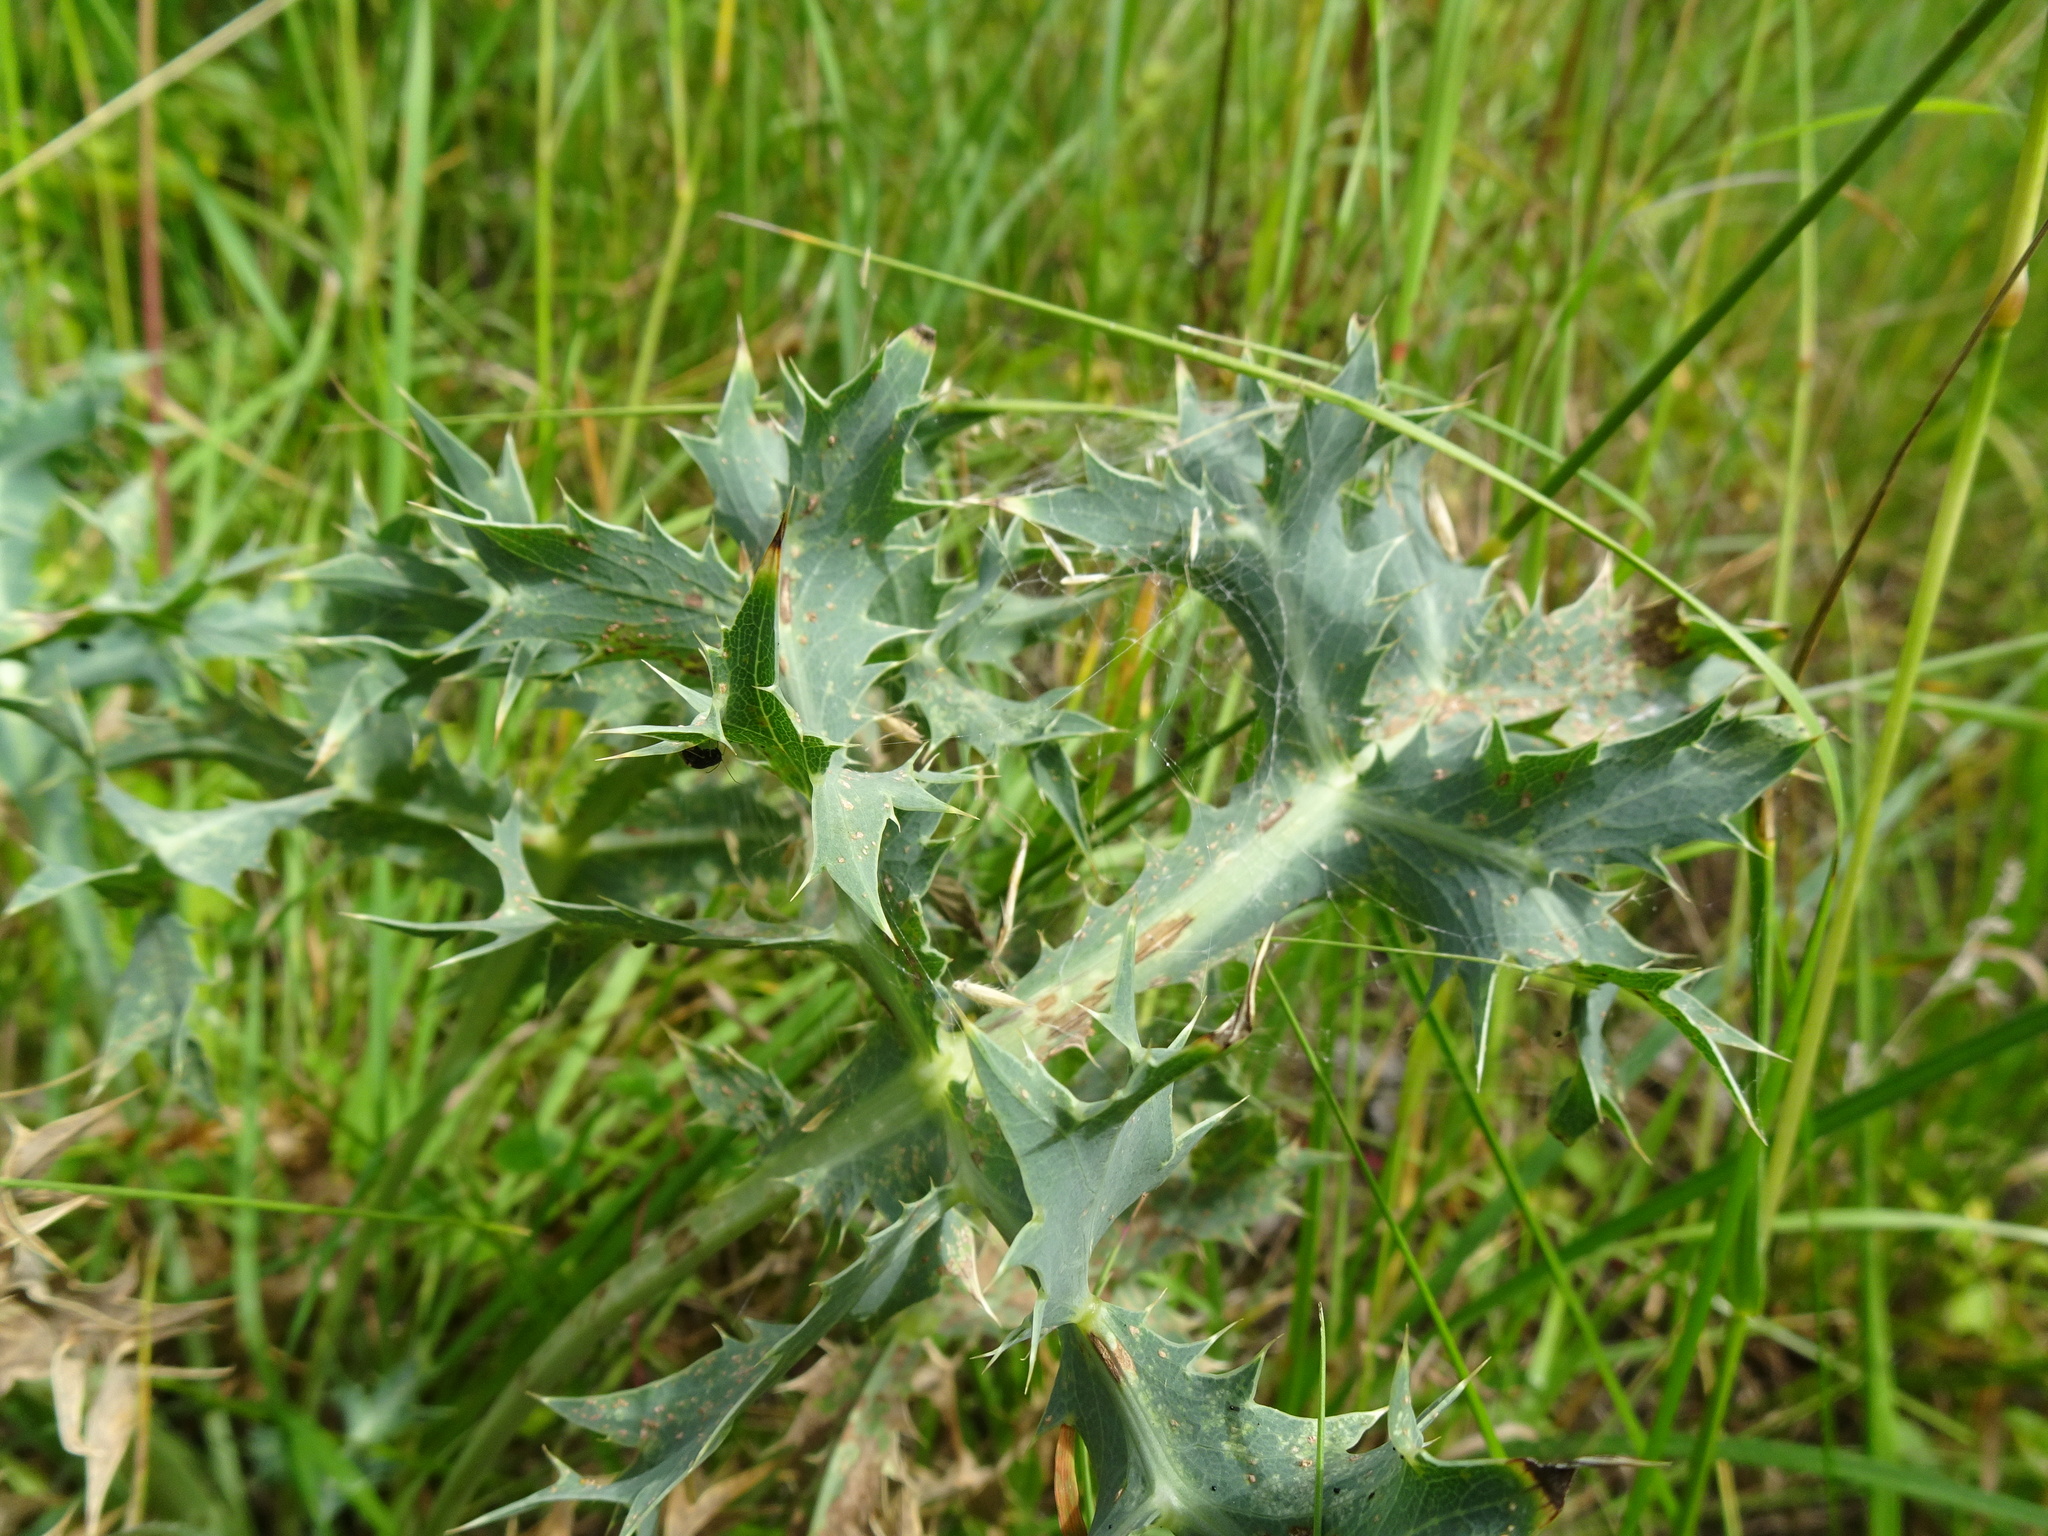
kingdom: Plantae
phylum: Tracheophyta
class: Magnoliopsida
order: Apiales
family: Apiaceae
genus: Eryngium
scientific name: Eryngium campestre
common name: Field eryngo
